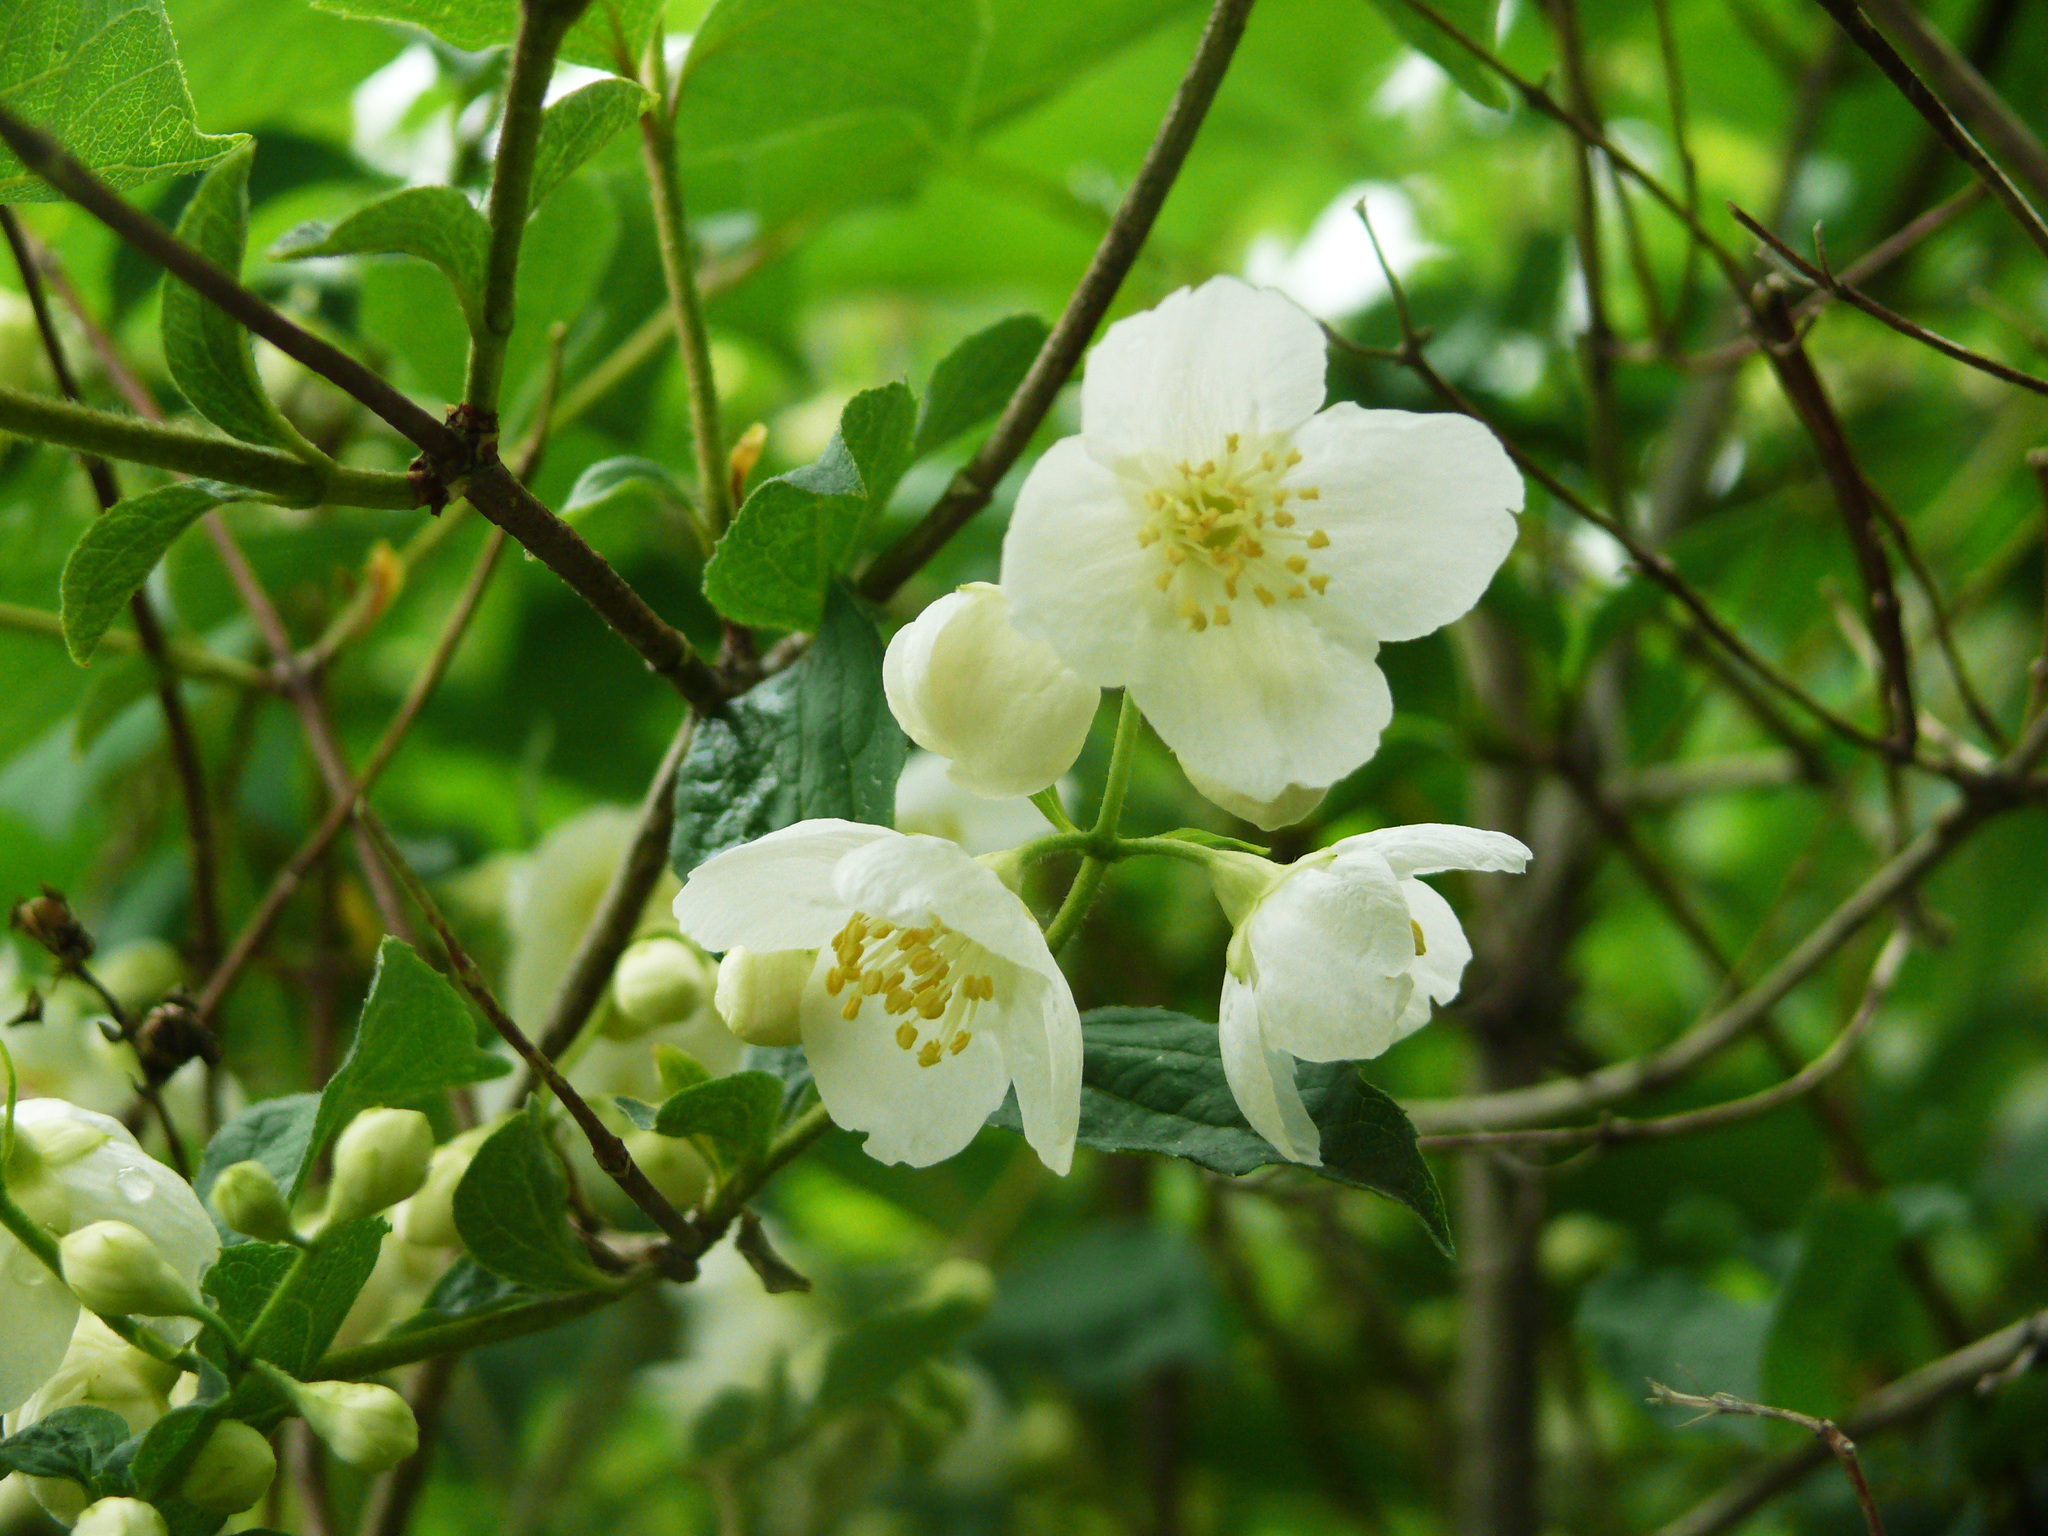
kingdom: Plantae
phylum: Tracheophyta
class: Magnoliopsida
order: Cornales
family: Hydrangeaceae
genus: Philadelphus
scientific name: Philadelphus tenuifolius
